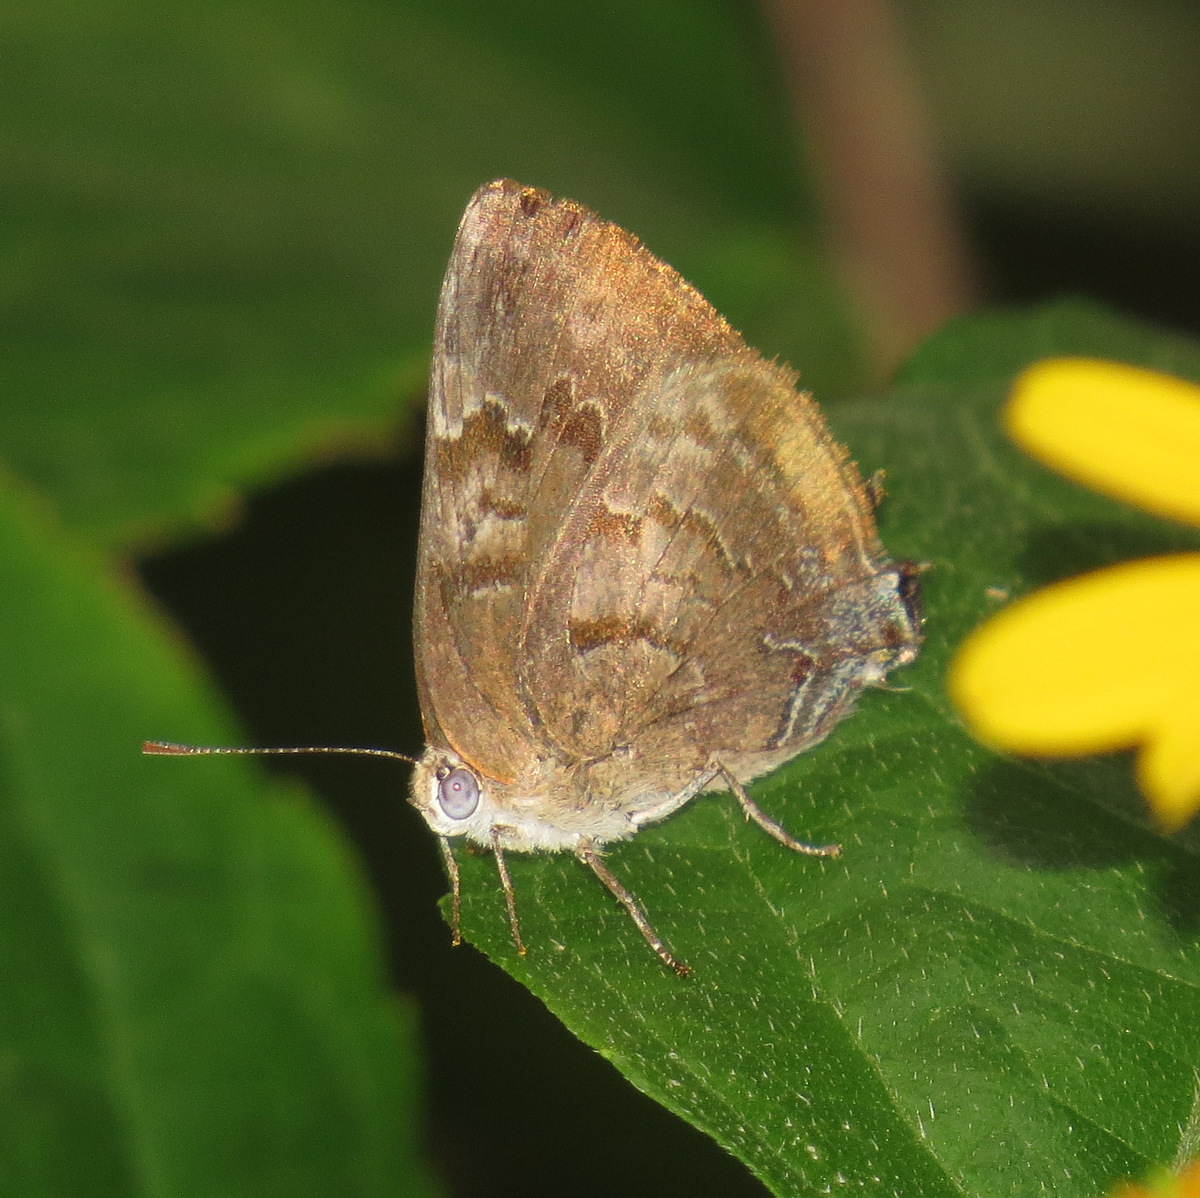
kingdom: Animalia
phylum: Arthropoda
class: Insecta
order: Lepidoptera
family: Lycaenidae
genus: Rekoa
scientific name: Rekoa palegon
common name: Gold-bordered hairstreak
